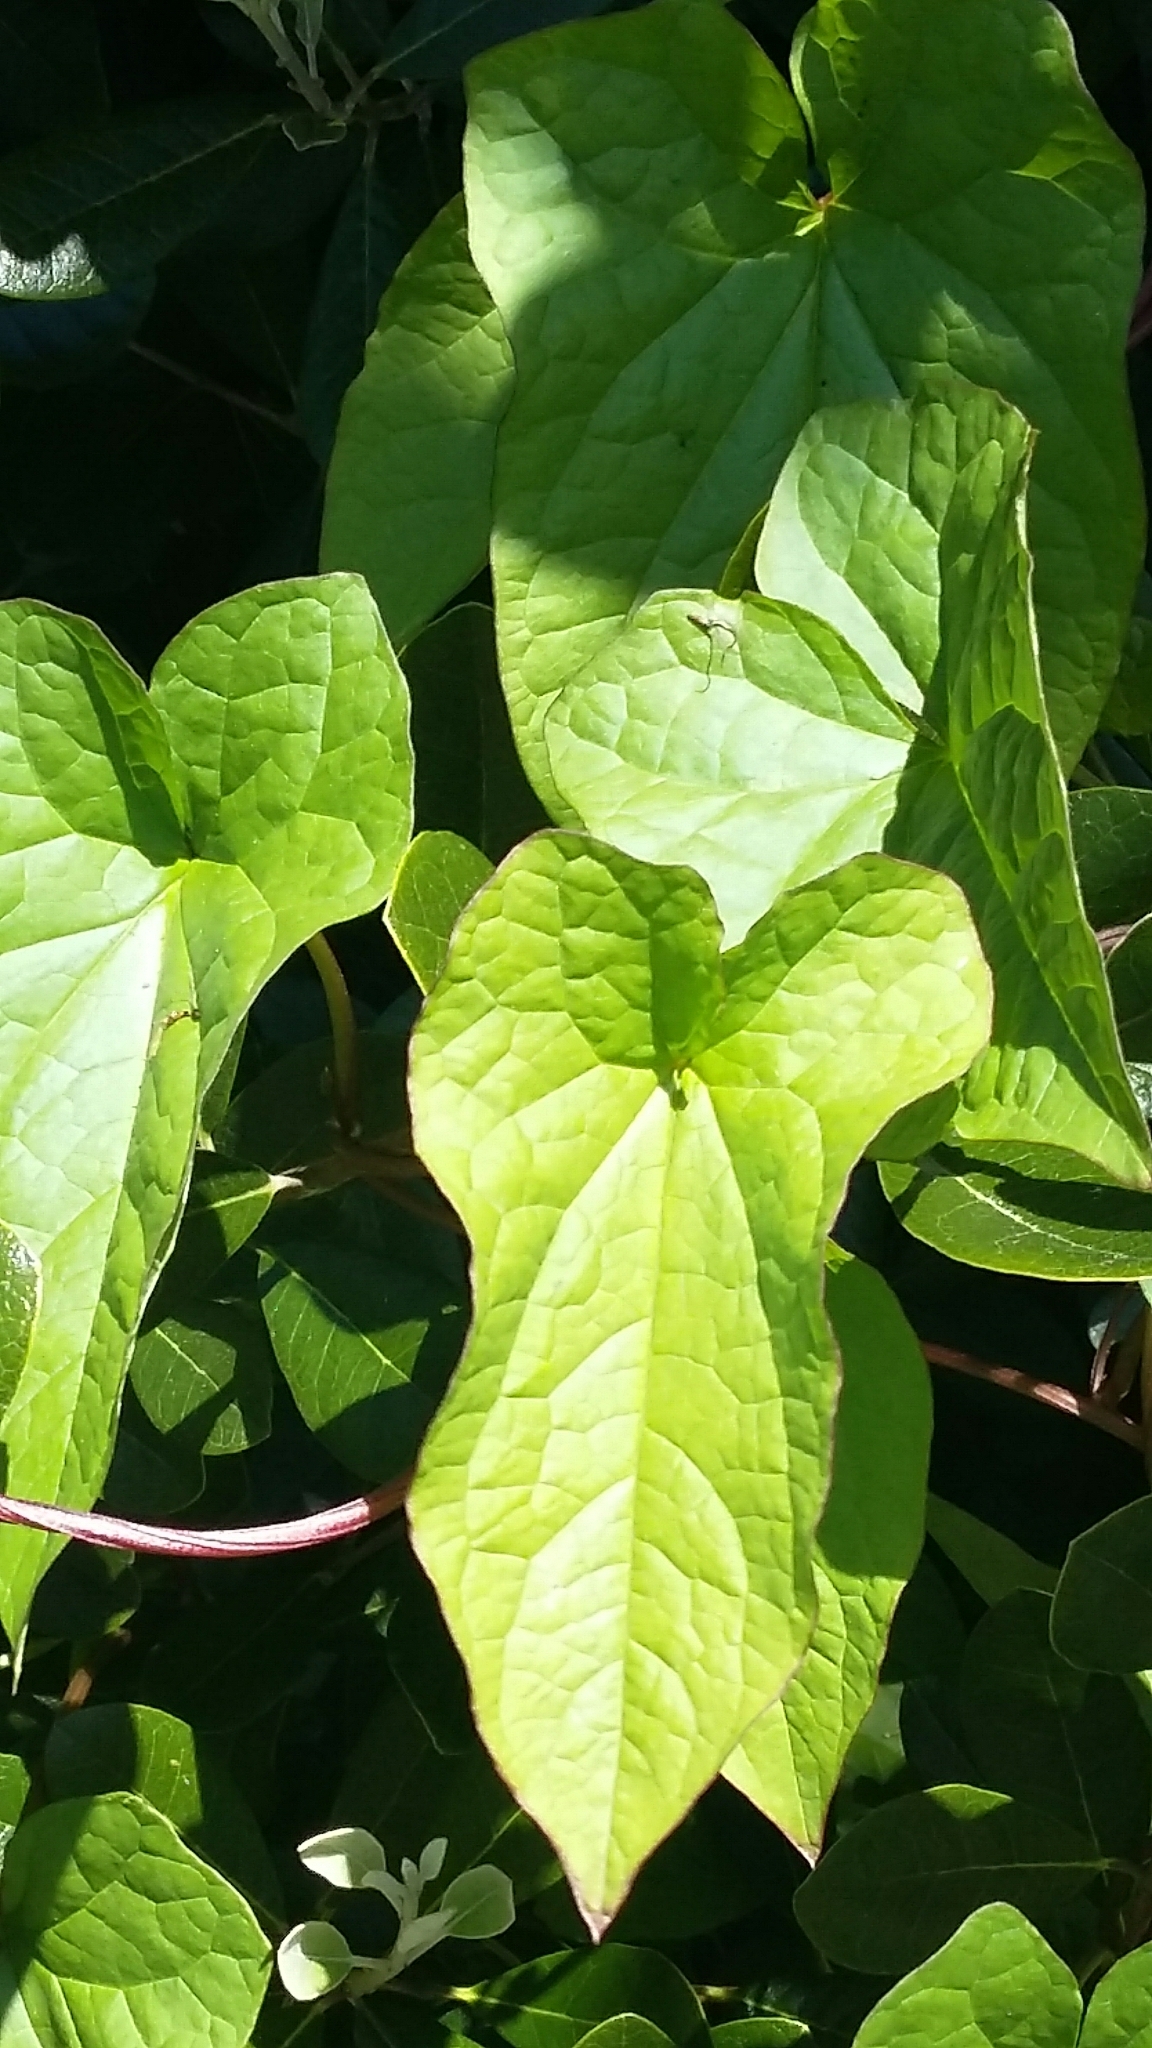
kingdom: Plantae
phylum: Tracheophyta
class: Magnoliopsida
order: Solanales
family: Convolvulaceae
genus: Calystegia
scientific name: Calystegia silvatica
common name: Large bindweed
